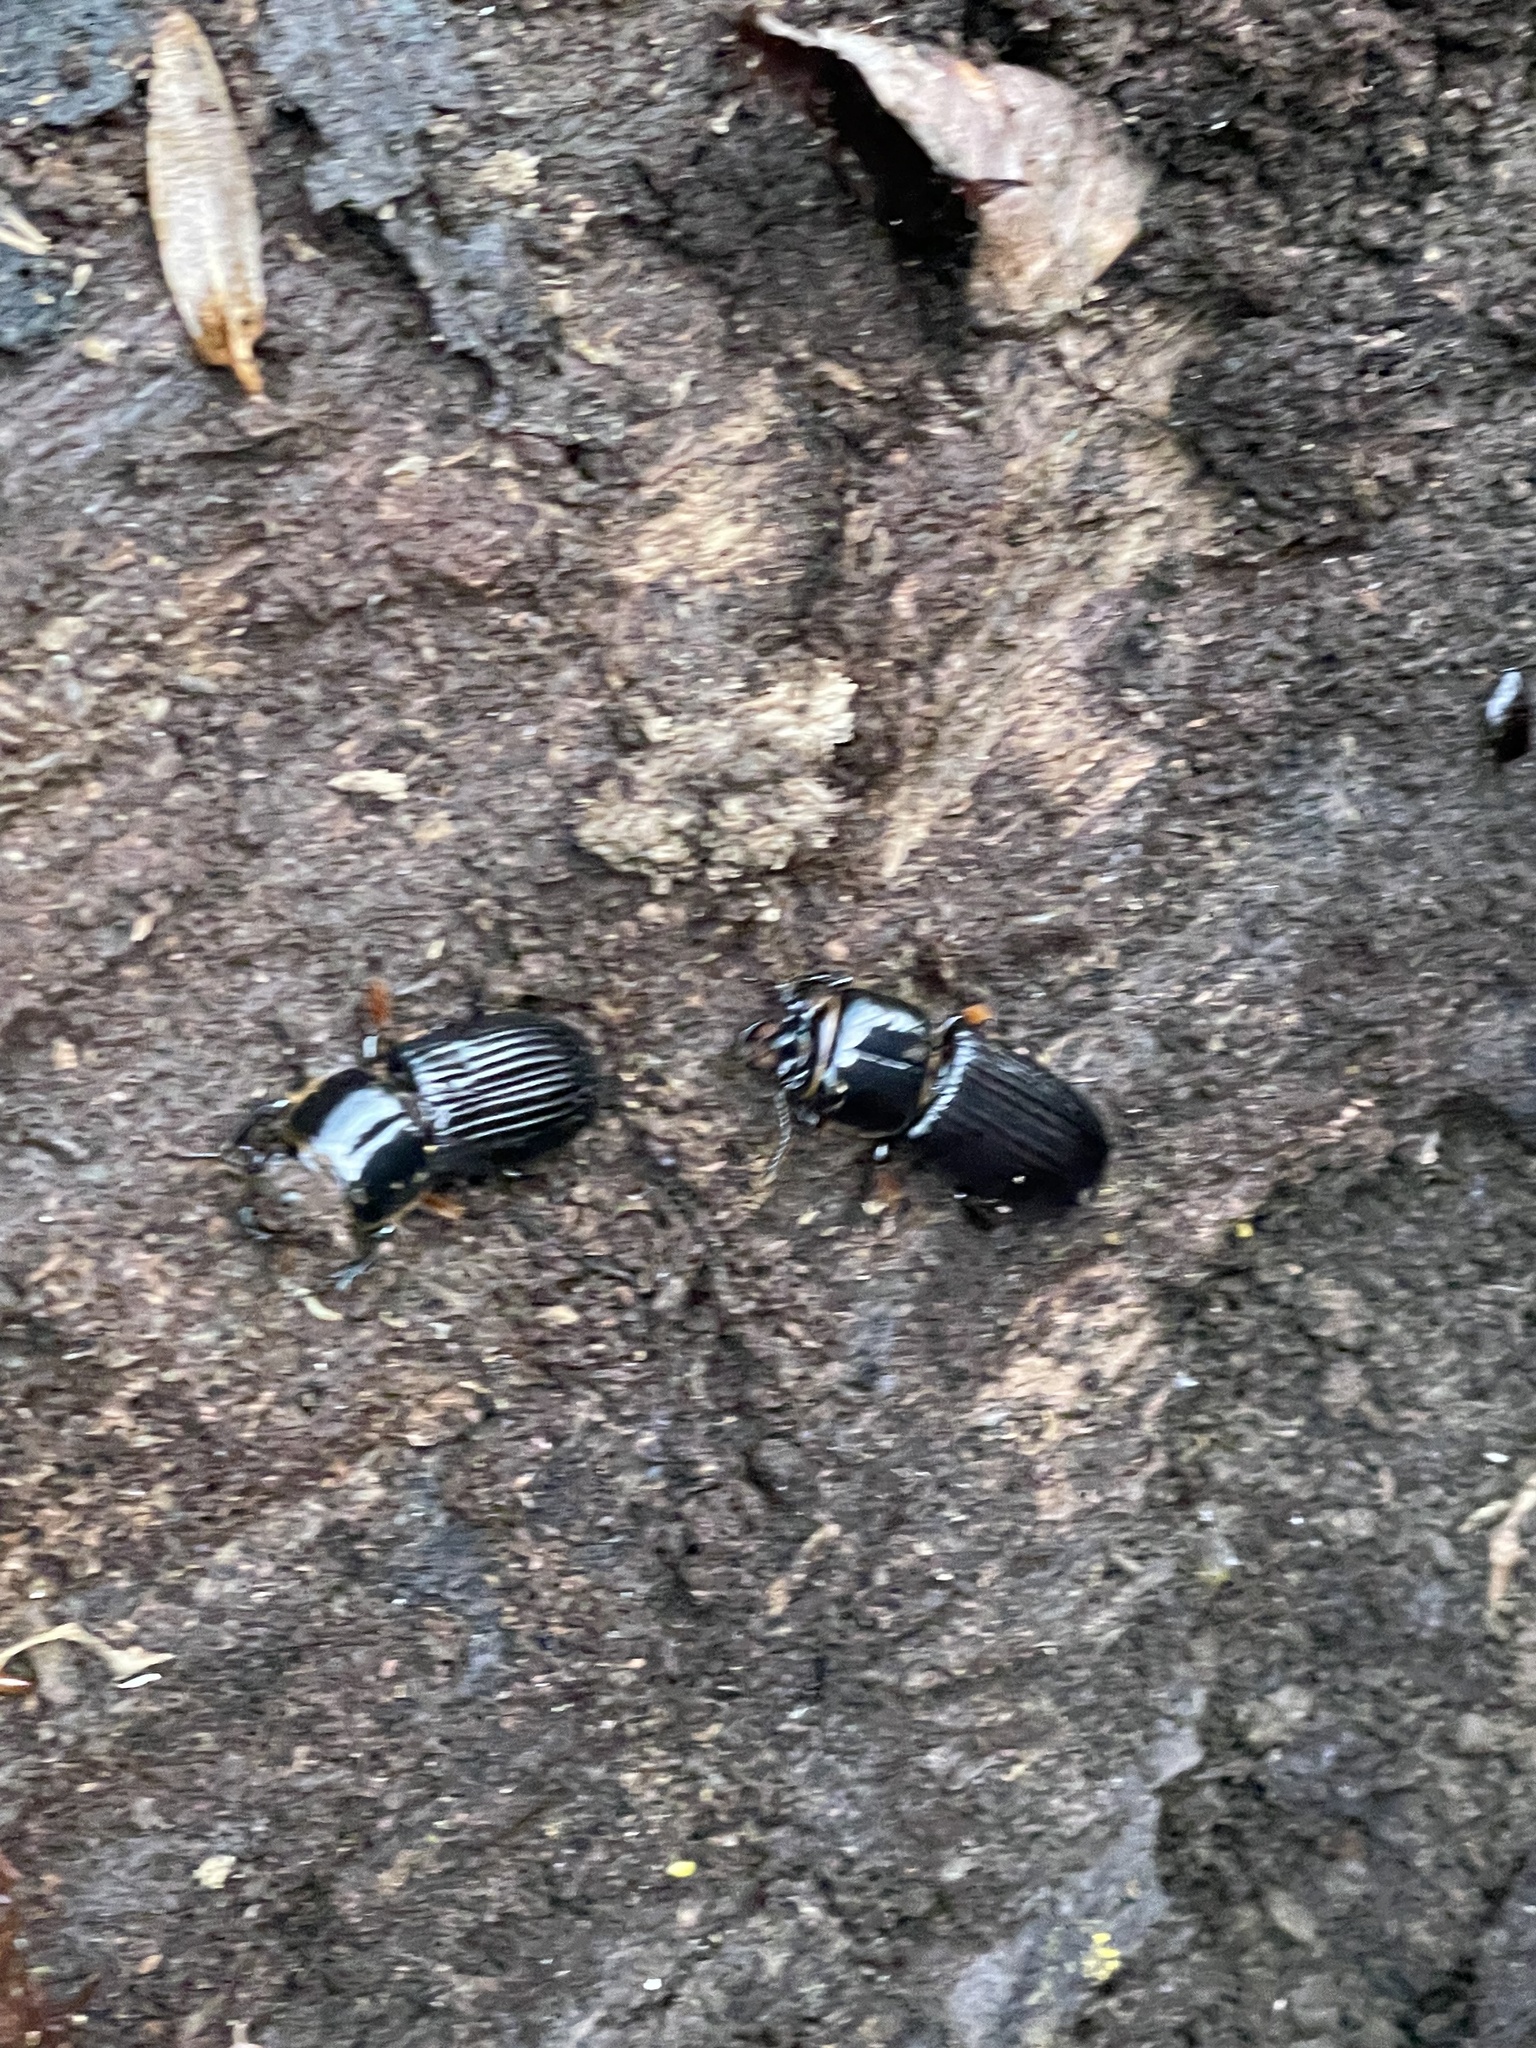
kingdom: Animalia
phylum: Arthropoda
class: Insecta
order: Coleoptera
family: Passalidae
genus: Odontotaenius
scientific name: Odontotaenius disjunctus
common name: Patent leather beetle
